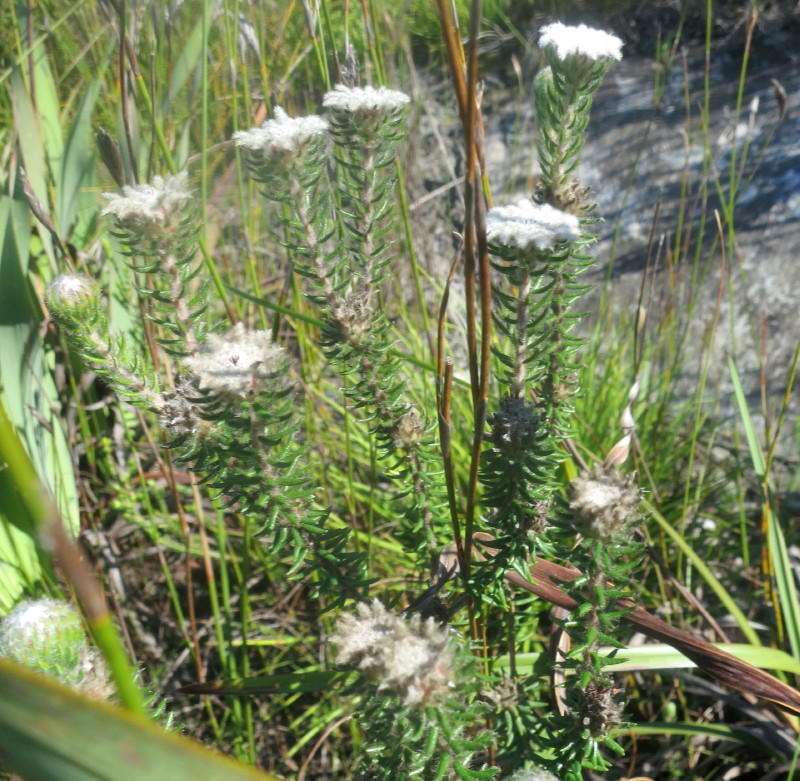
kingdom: Plantae
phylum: Tracheophyta
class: Magnoliopsida
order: Rosales
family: Rhamnaceae
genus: Phylica
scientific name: Phylica curvifolia
